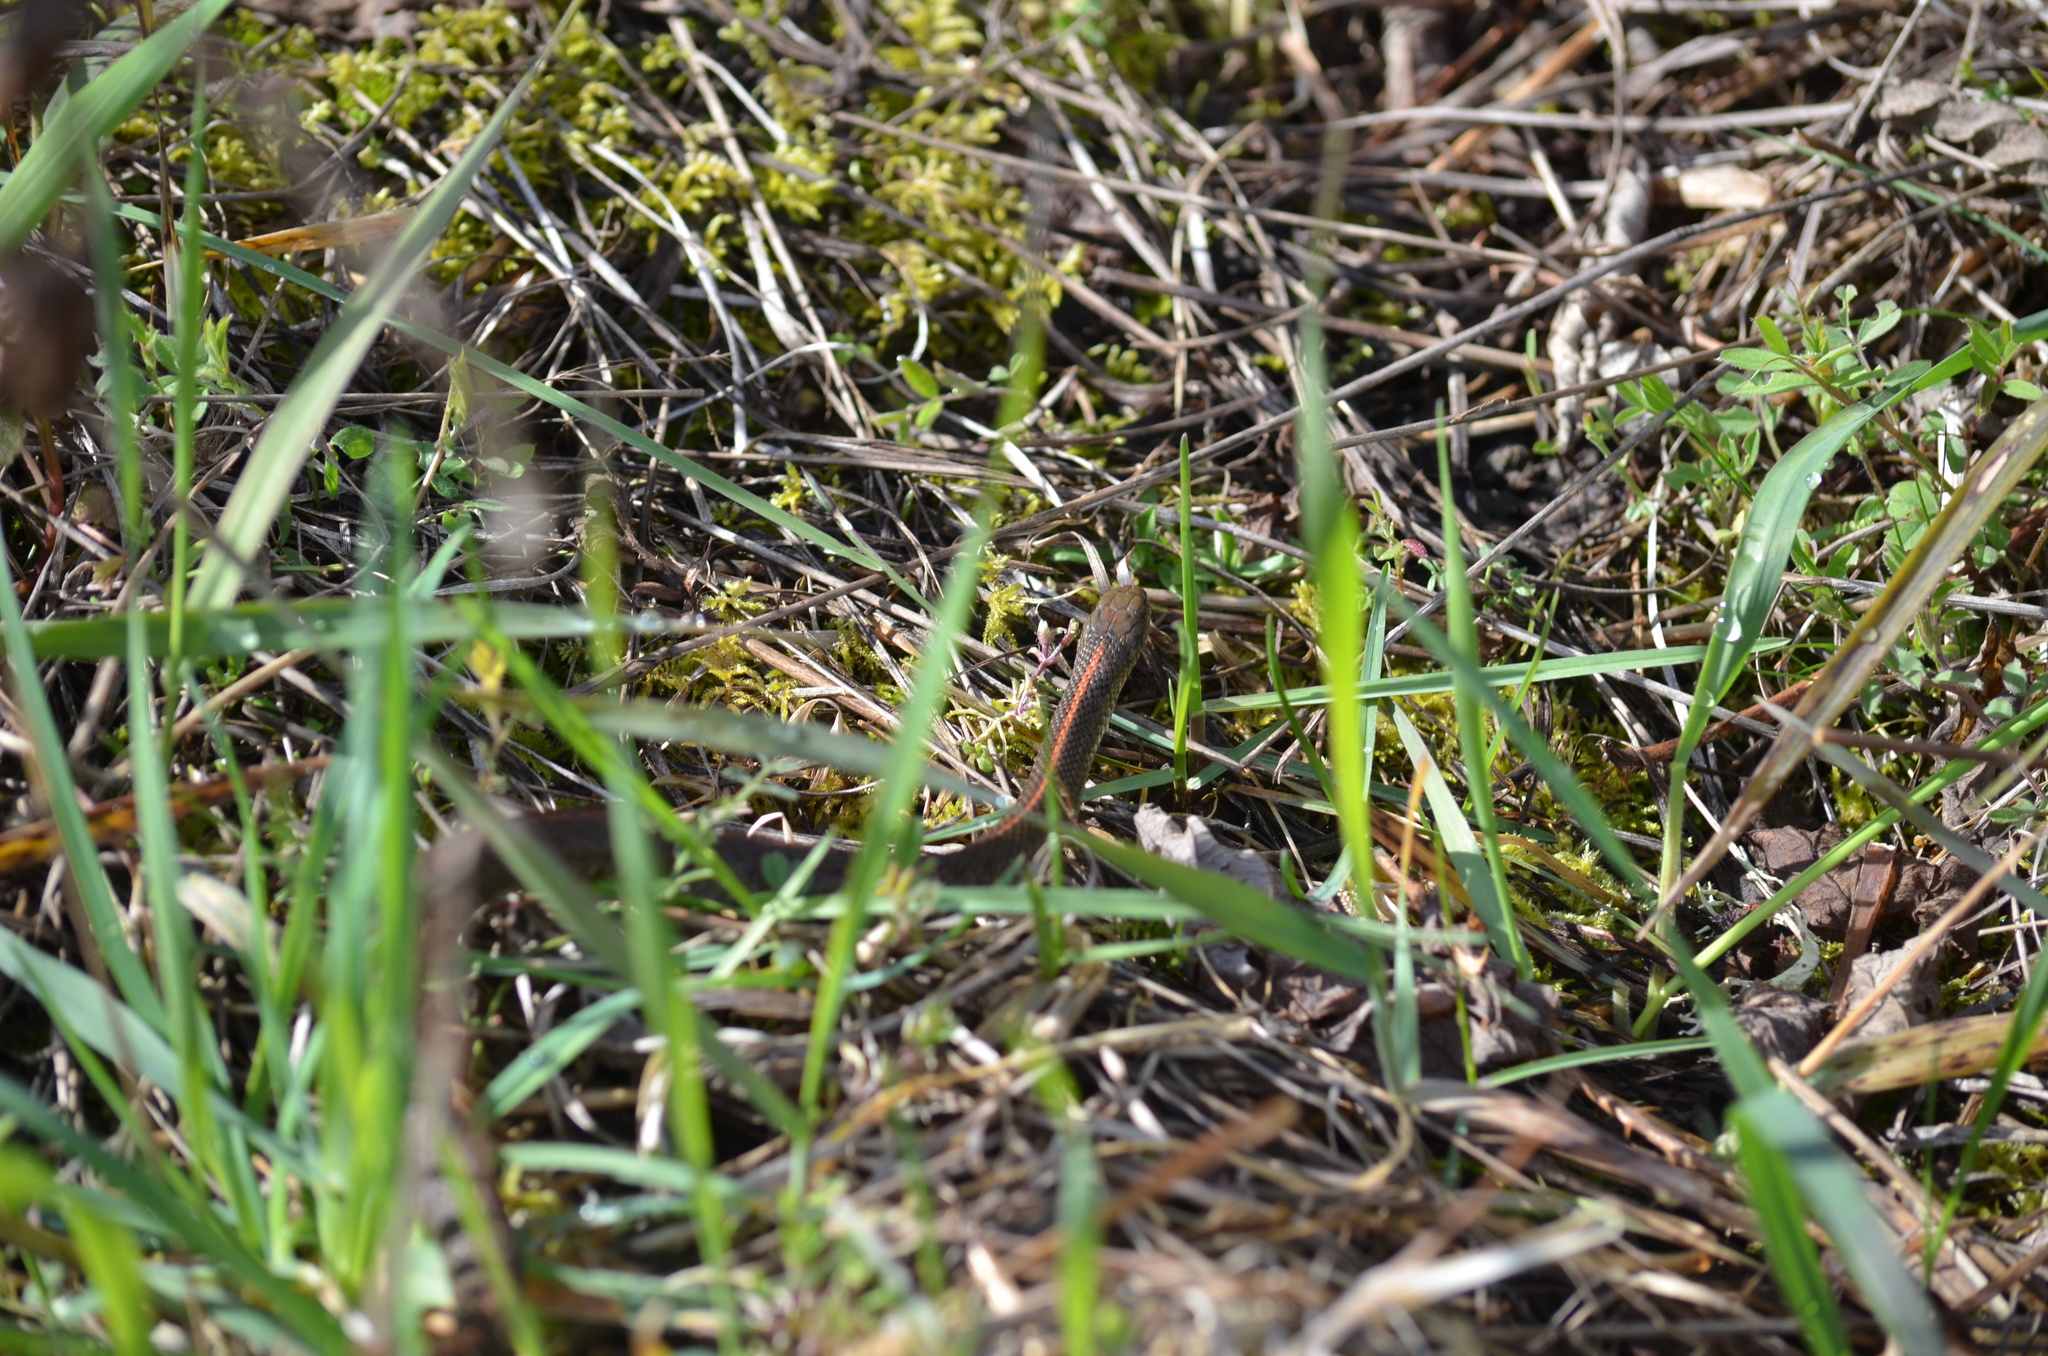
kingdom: Animalia
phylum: Chordata
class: Squamata
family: Colubridae
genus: Thamnophis
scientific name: Thamnophis ordinoides
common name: Northwestern garter snake
